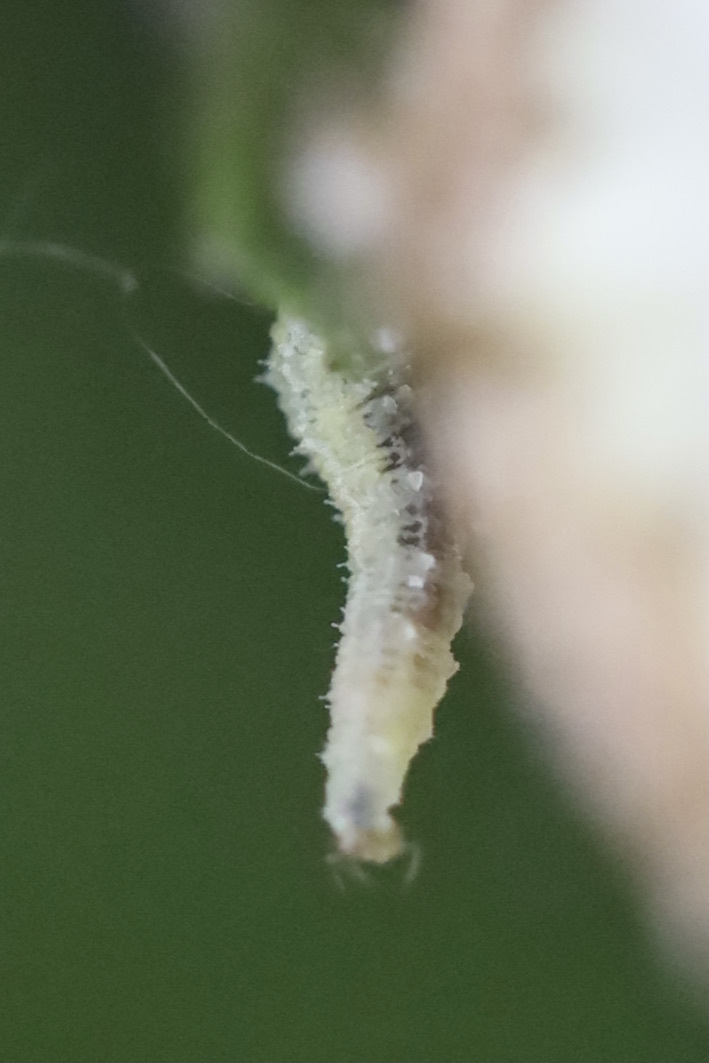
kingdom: Animalia
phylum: Arthropoda
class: Insecta
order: Diptera
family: Syrphidae
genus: Scaeva
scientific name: Scaeva affinis
